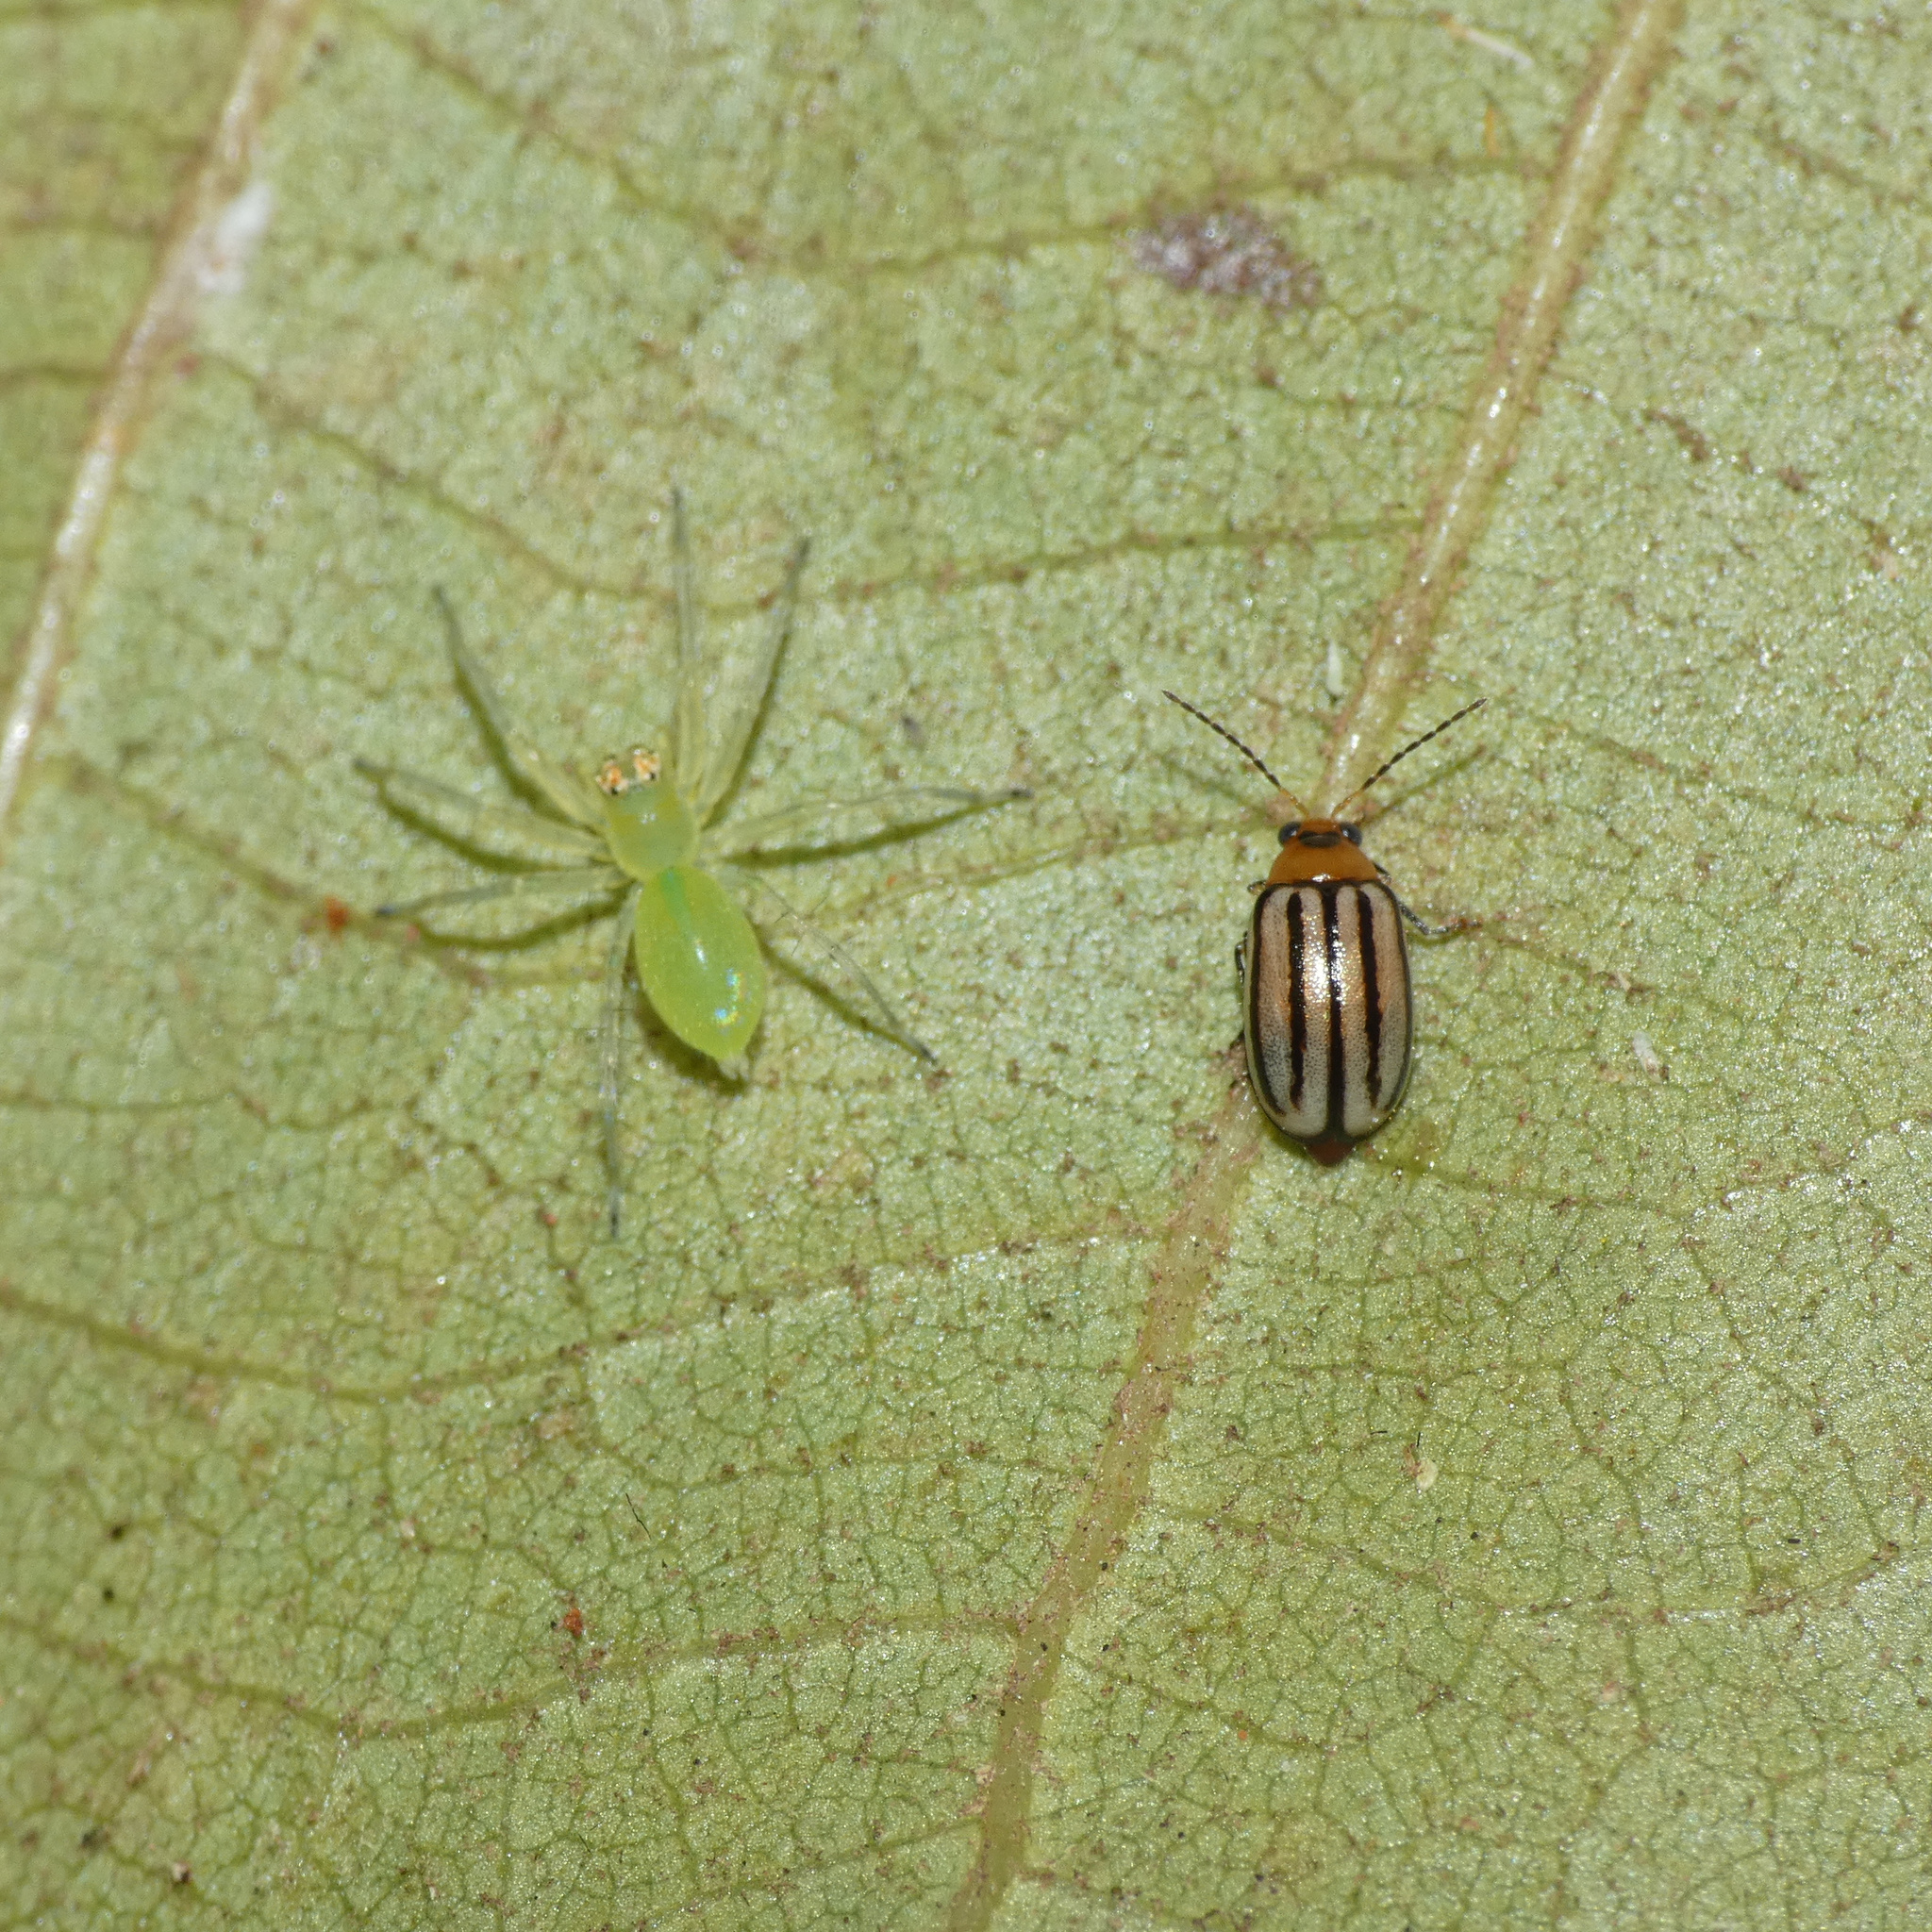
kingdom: Animalia
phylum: Arthropoda
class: Insecta
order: Coleoptera
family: Chrysomelidae
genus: Neobarombiella
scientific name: Neobarombiella
